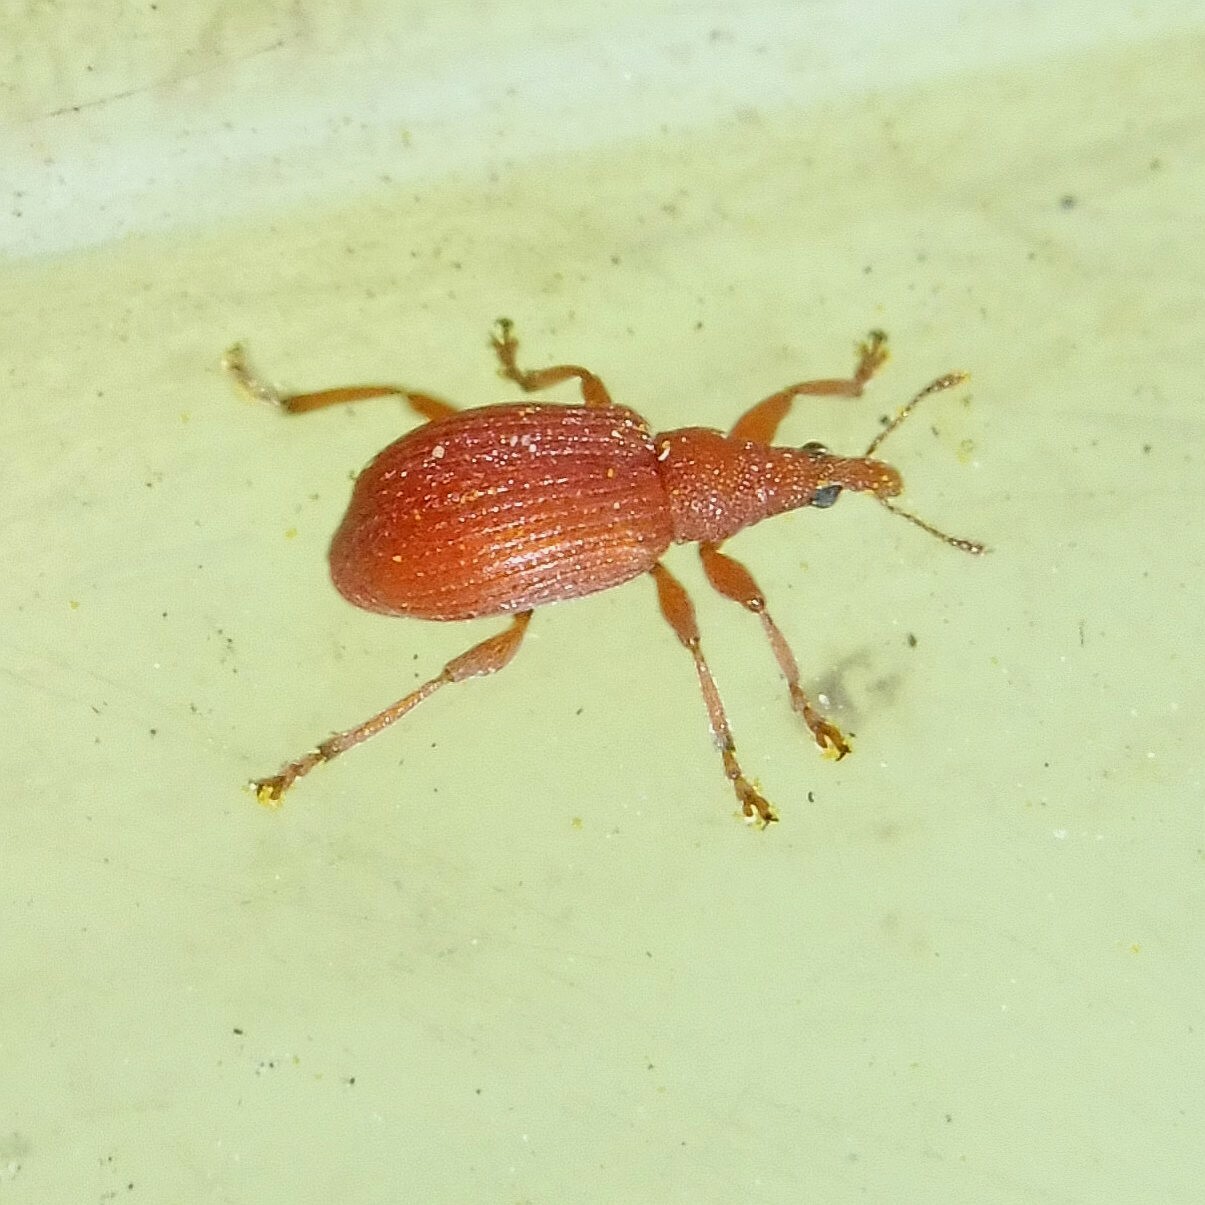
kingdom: Animalia
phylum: Arthropoda
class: Insecta
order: Coleoptera
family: Apionidae
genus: Apion
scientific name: Apion frumentarium
